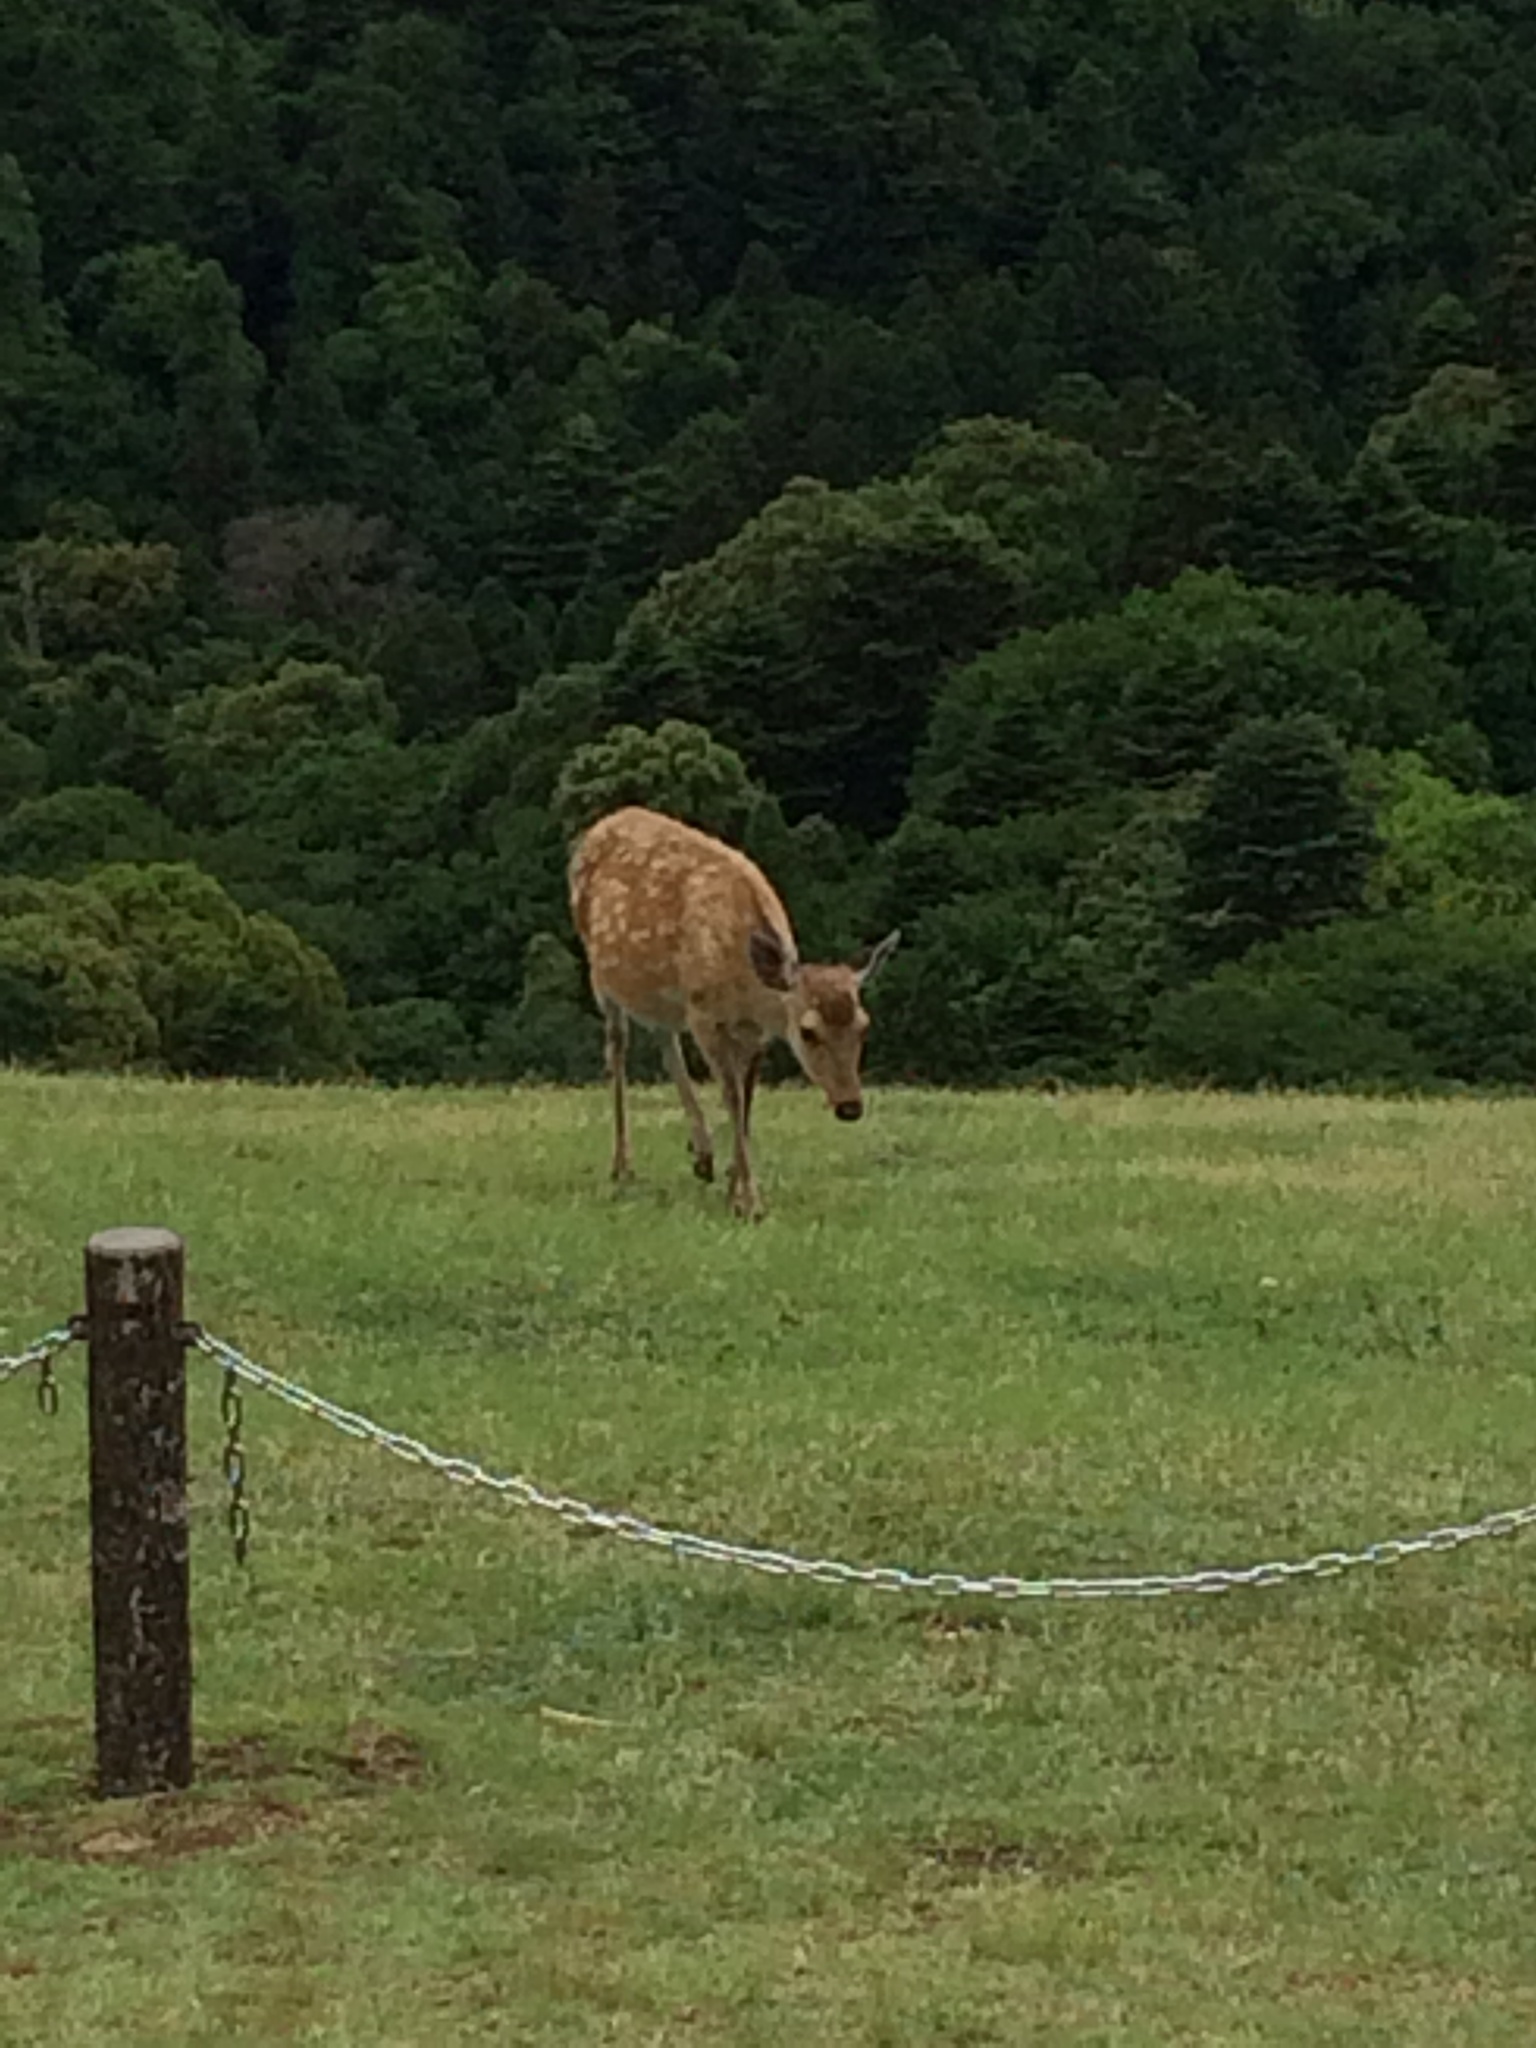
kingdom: Animalia
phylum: Chordata
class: Mammalia
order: Artiodactyla
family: Cervidae
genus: Cervus
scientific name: Cervus nippon
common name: Sika deer
